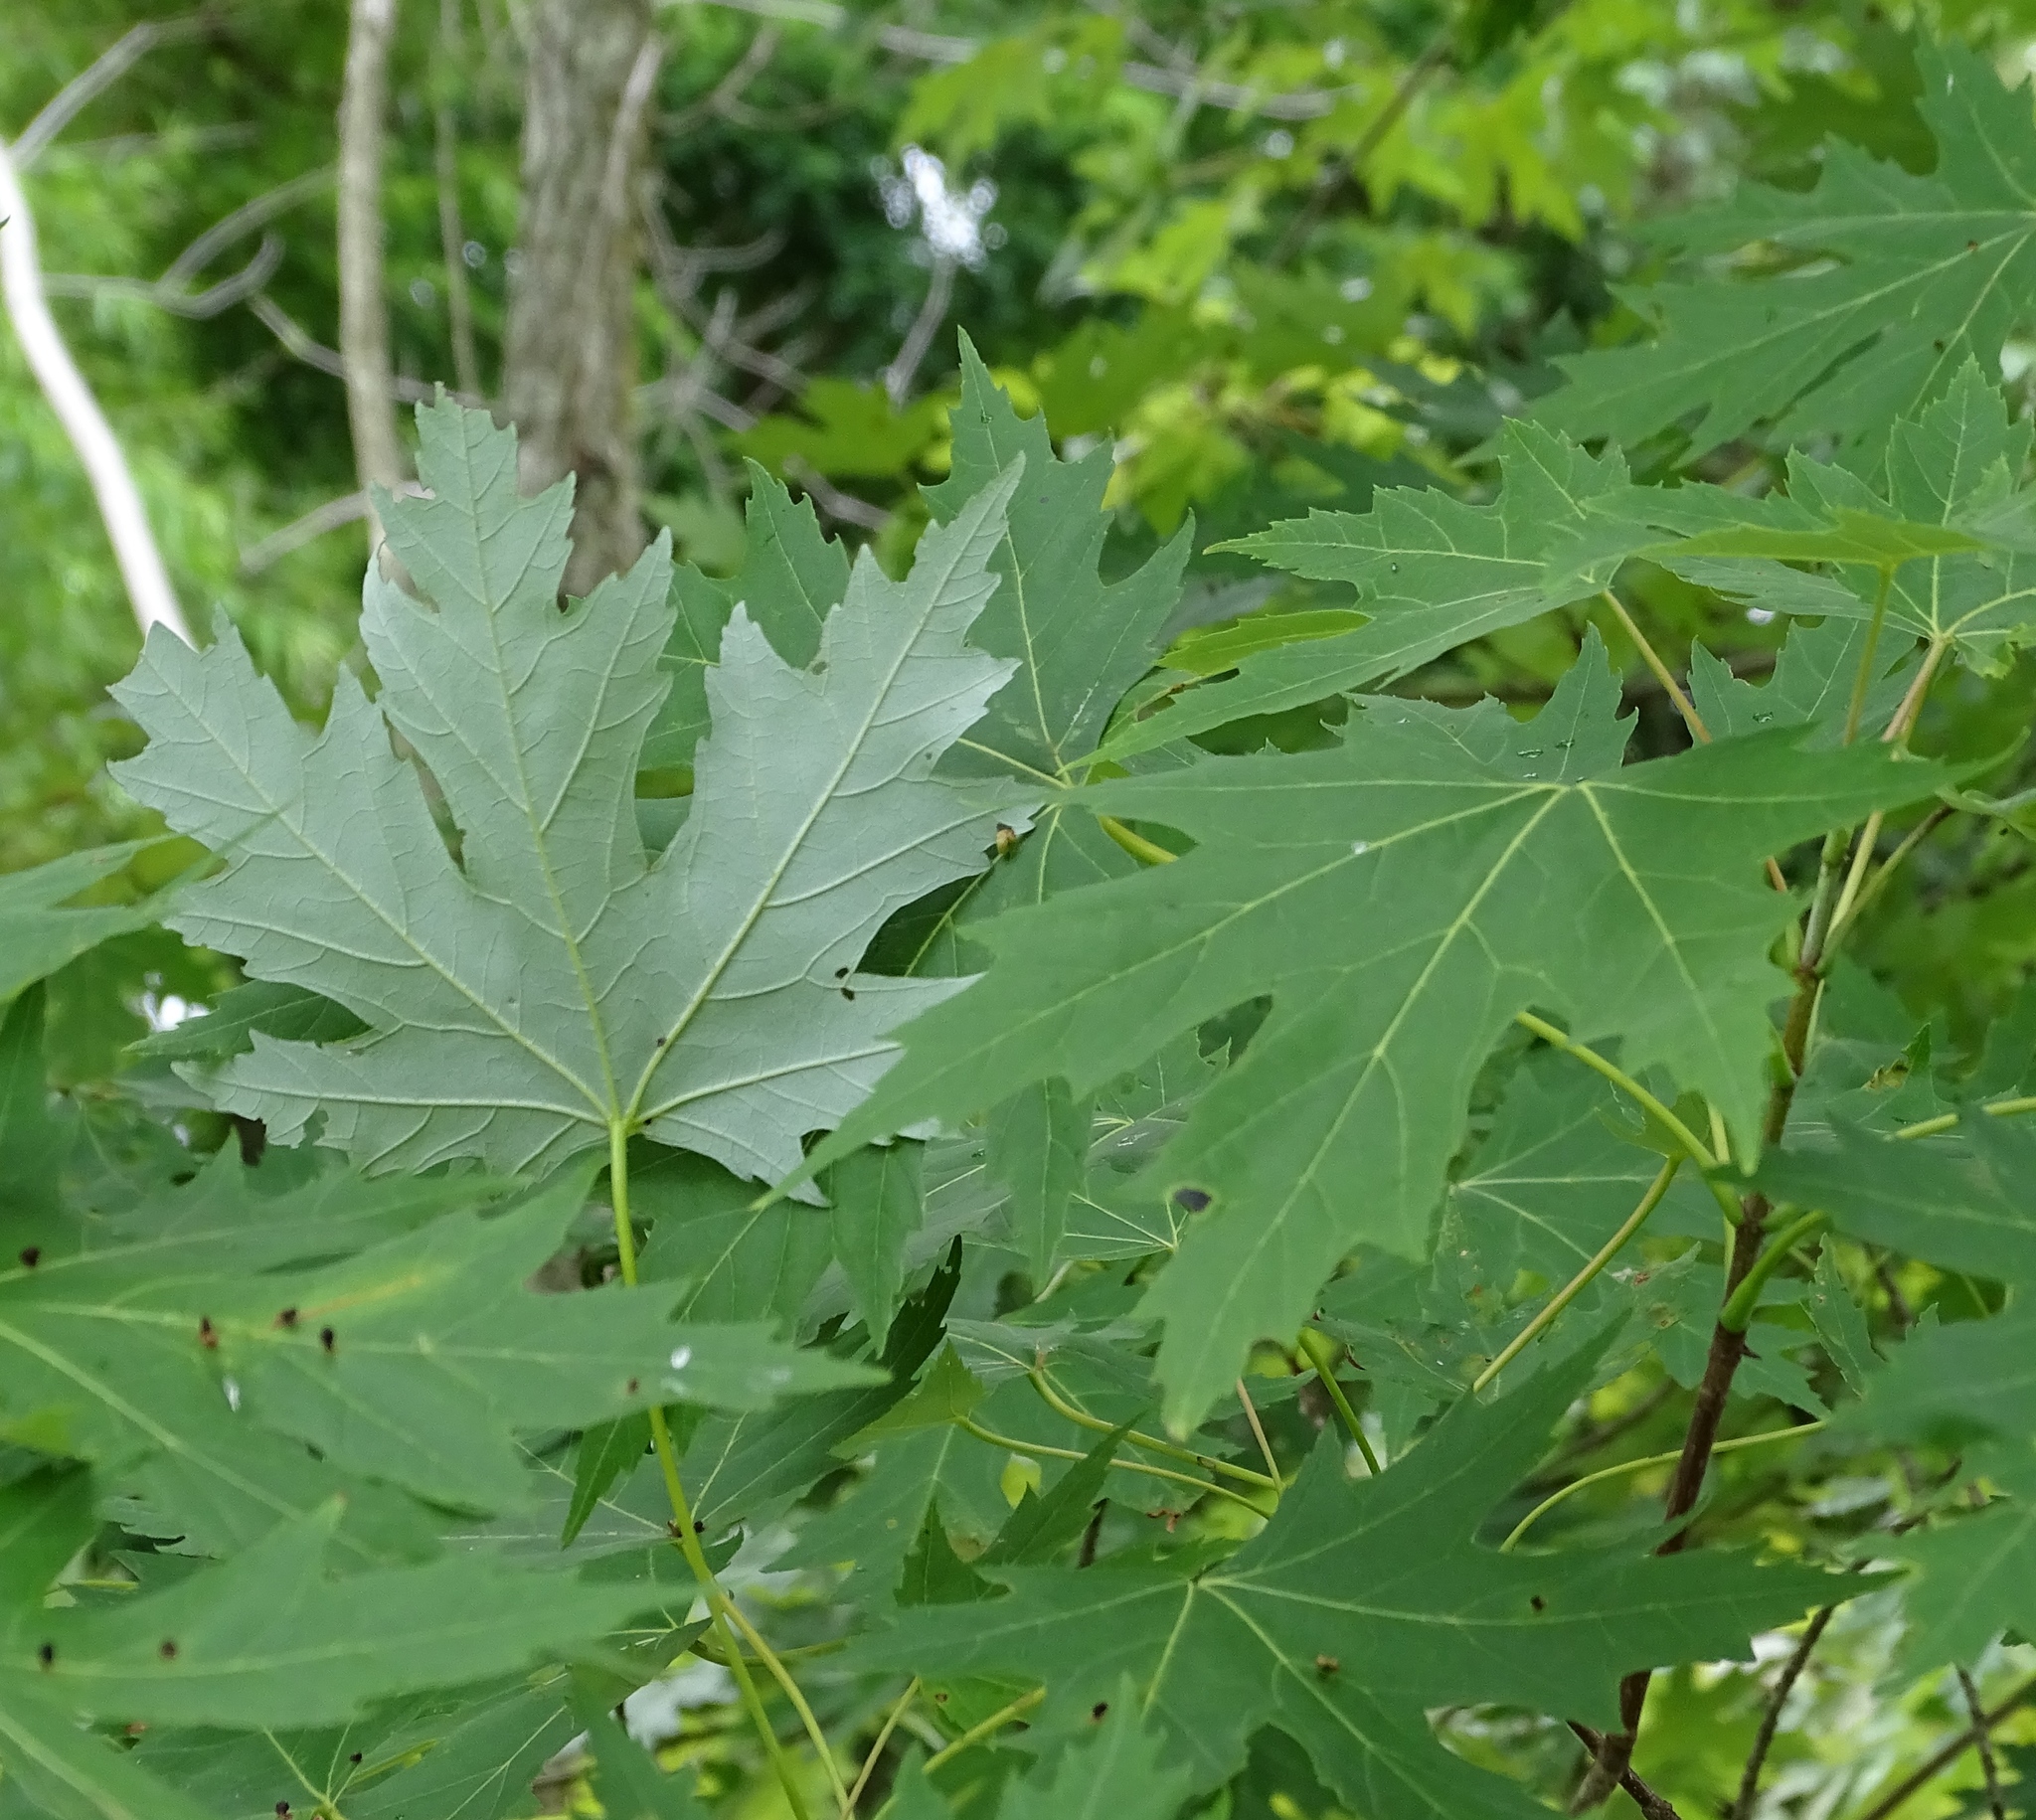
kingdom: Plantae
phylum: Tracheophyta
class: Magnoliopsida
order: Sapindales
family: Sapindaceae
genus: Acer
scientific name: Acer saccharinum
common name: Silver maple
